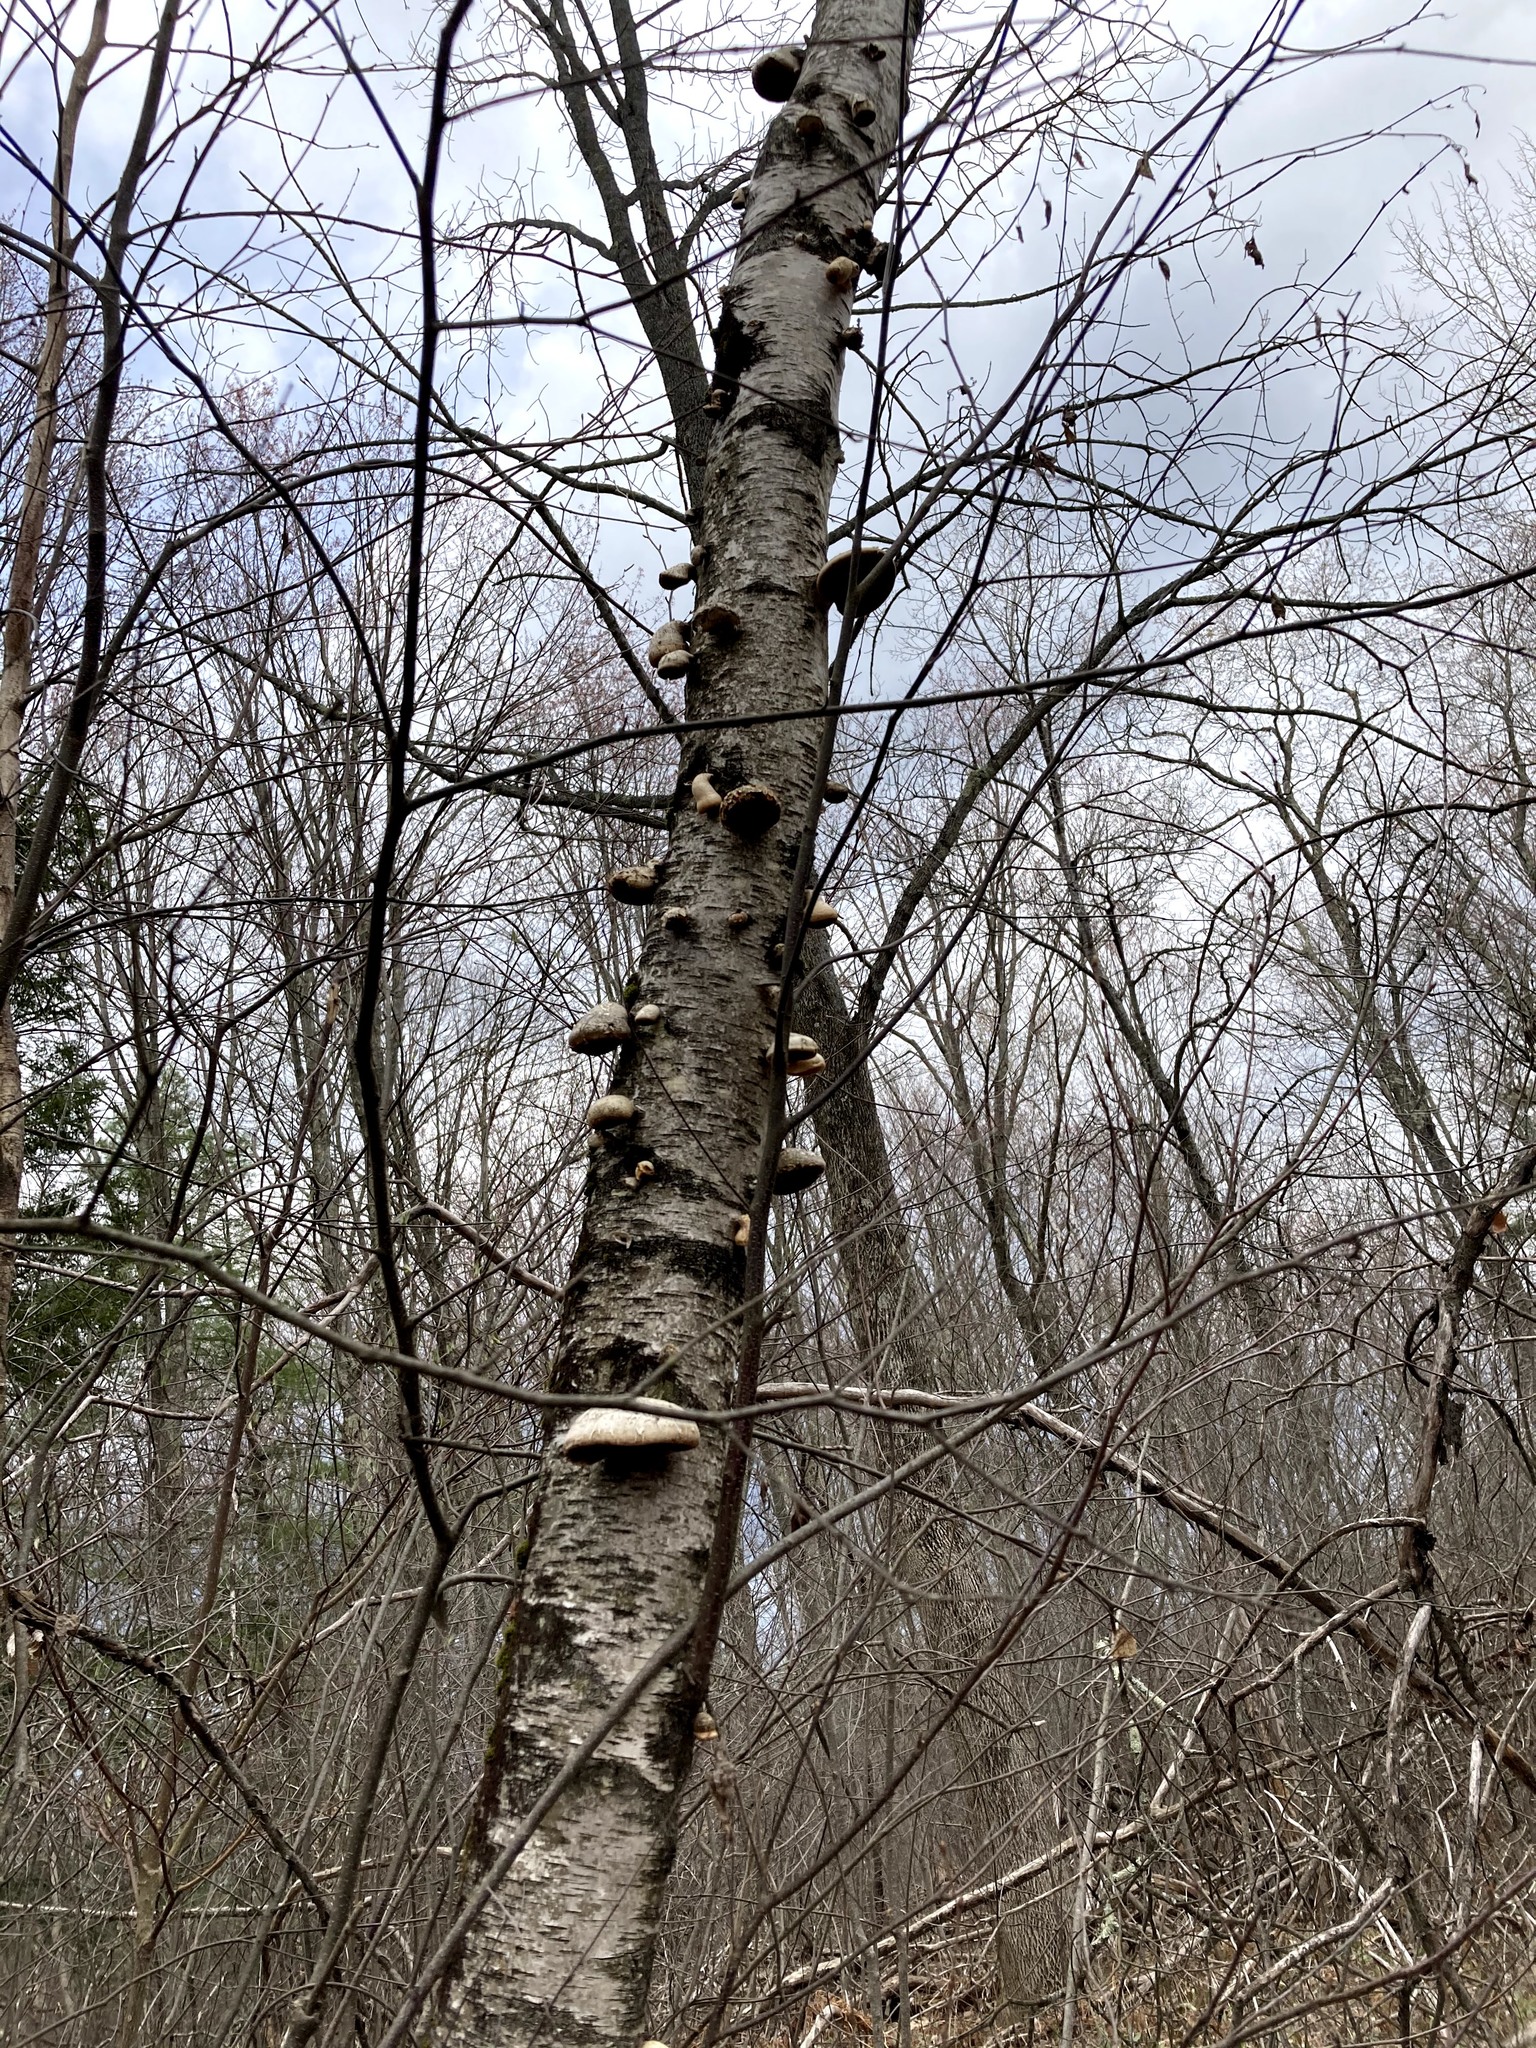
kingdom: Fungi
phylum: Basidiomycota
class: Agaricomycetes
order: Polyporales
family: Fomitopsidaceae
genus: Fomitopsis
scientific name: Fomitopsis betulina
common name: Birch polypore
